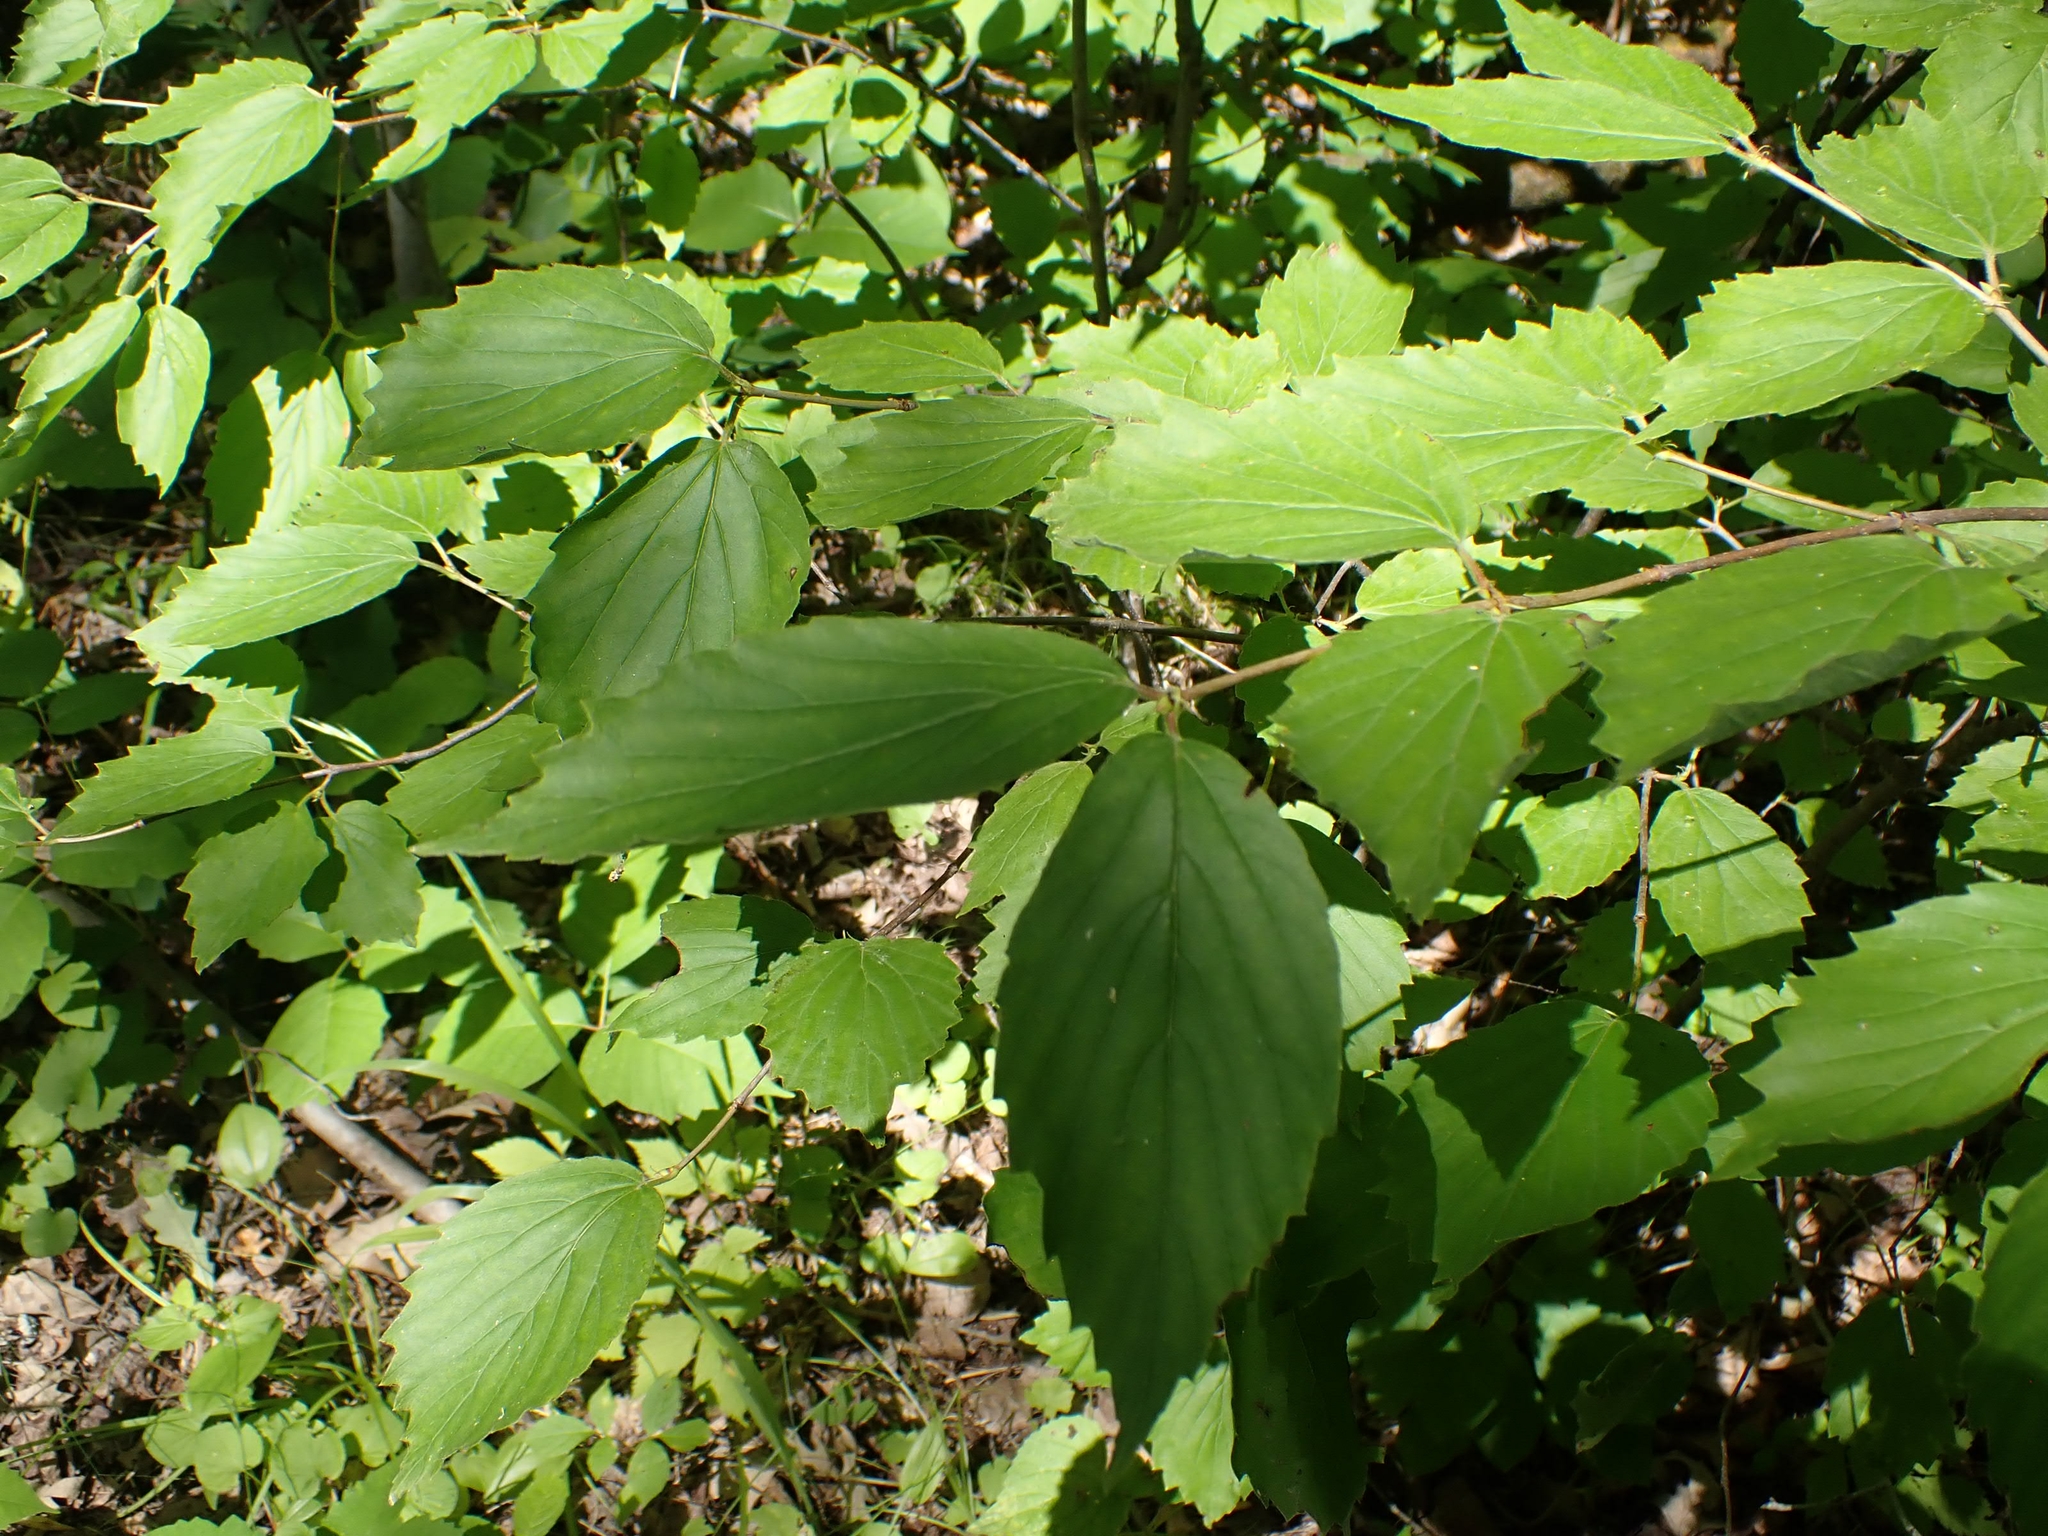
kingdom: Plantae
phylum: Tracheophyta
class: Magnoliopsida
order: Dipsacales
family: Viburnaceae
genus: Viburnum
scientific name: Viburnum rafinesqueanum
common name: Downy arrow-wood
